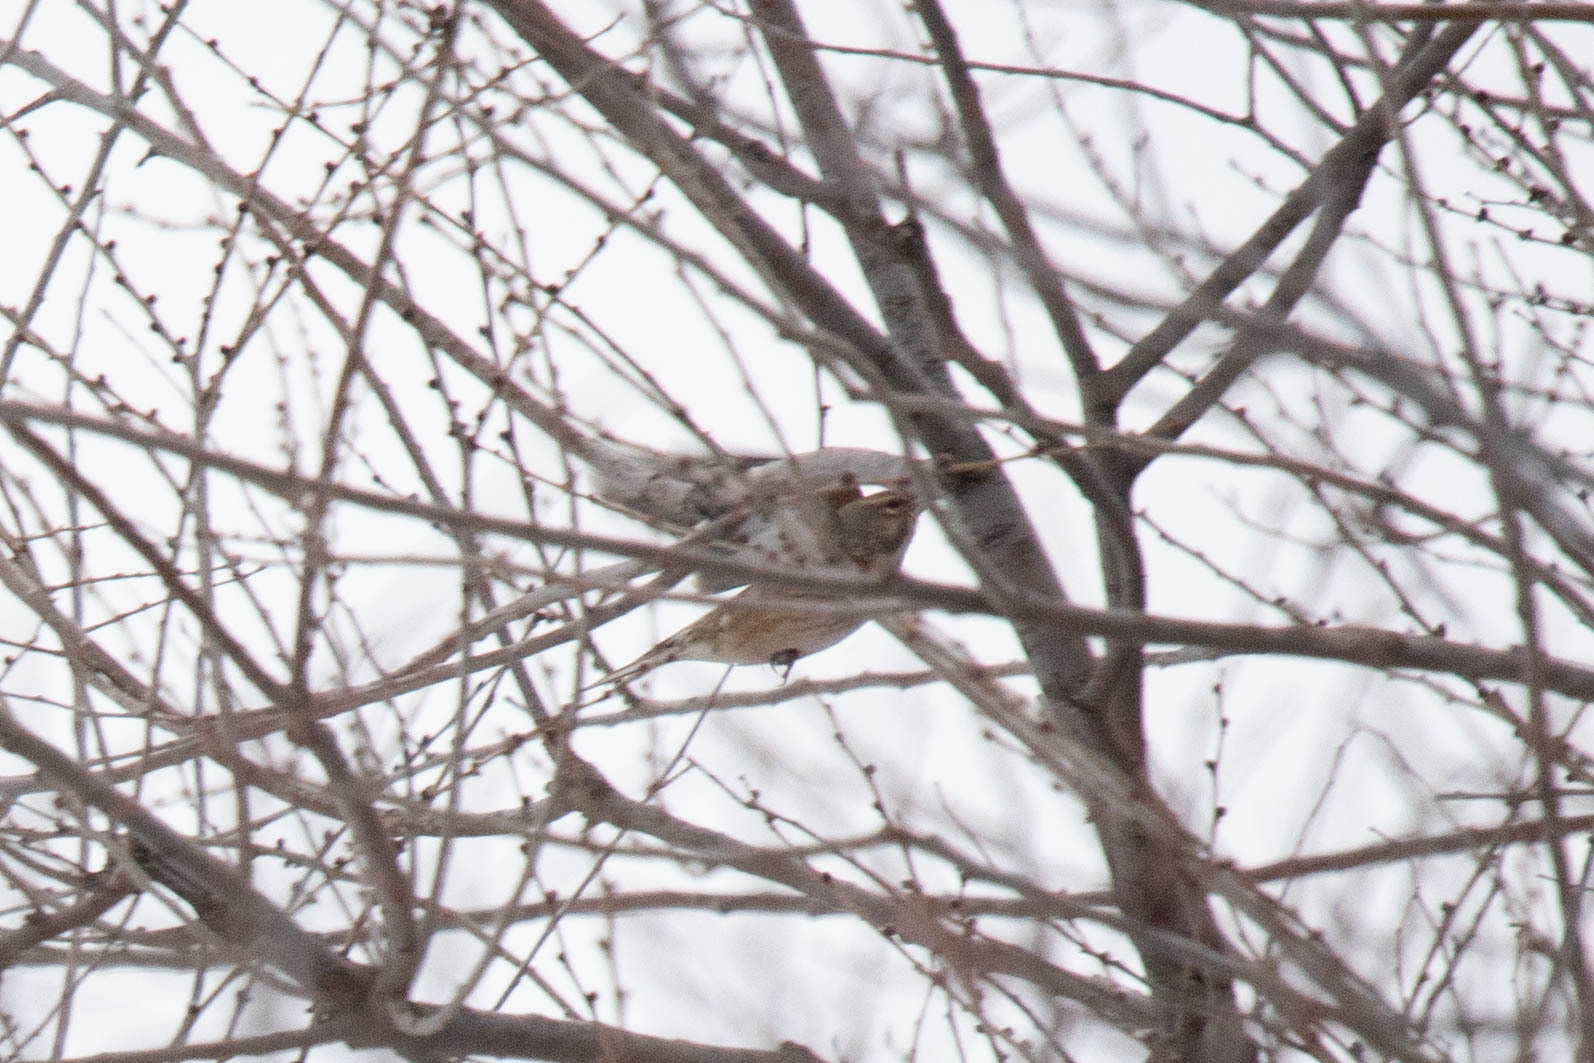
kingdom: Animalia
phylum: Chordata
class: Aves
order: Passeriformes
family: Fringillidae
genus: Linaria
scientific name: Linaria cannabina
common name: Common linnet
